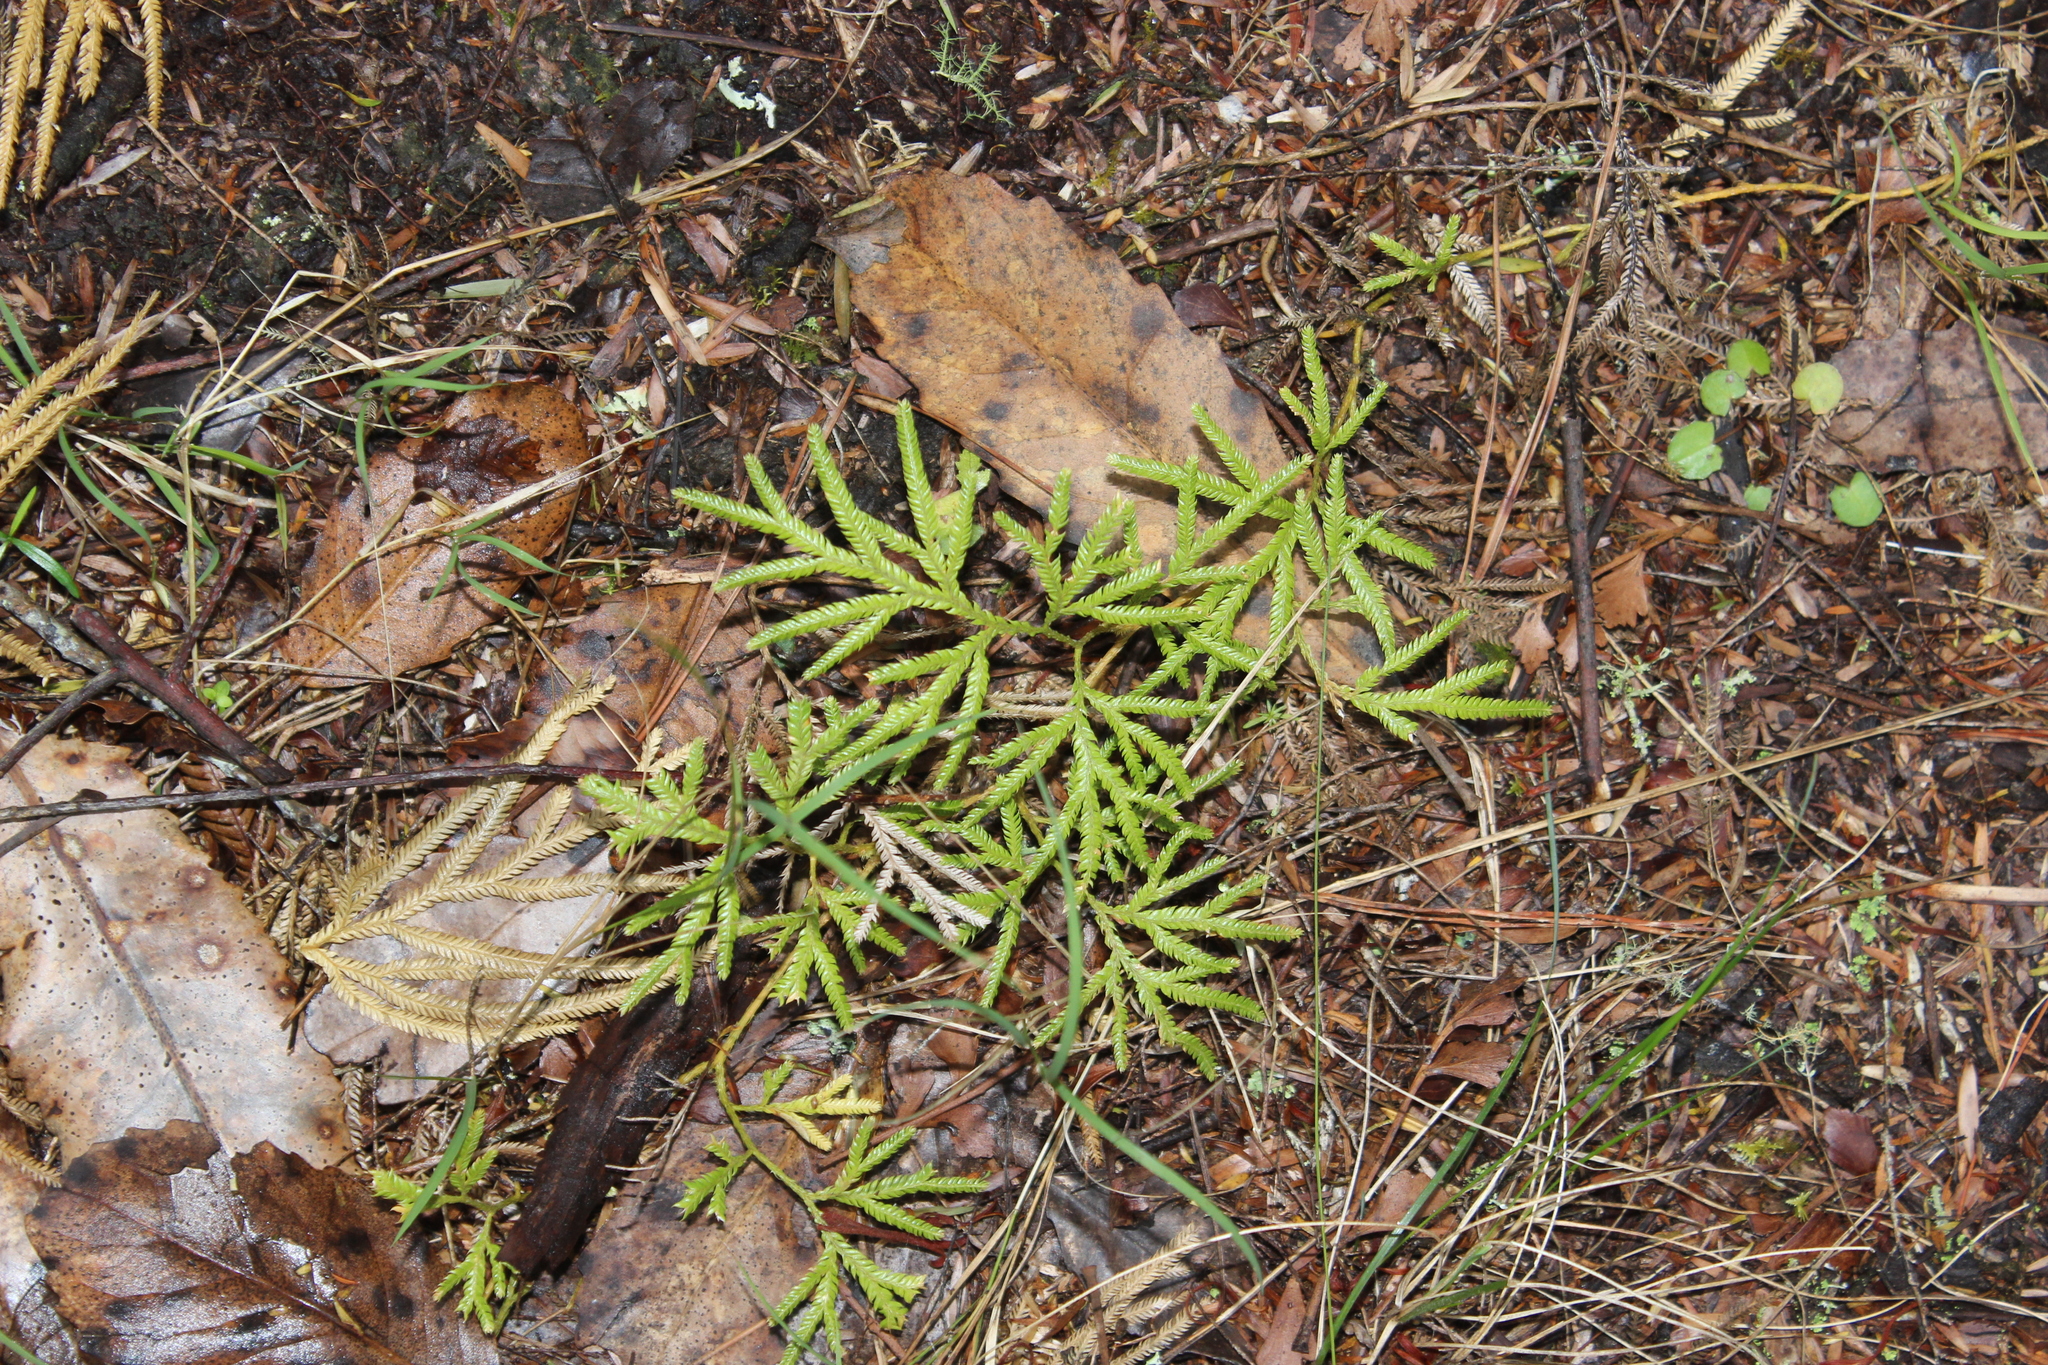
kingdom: Plantae
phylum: Tracheophyta
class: Lycopodiopsida
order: Lycopodiales
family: Lycopodiaceae
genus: Lycopodium
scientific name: Lycopodium volubile
